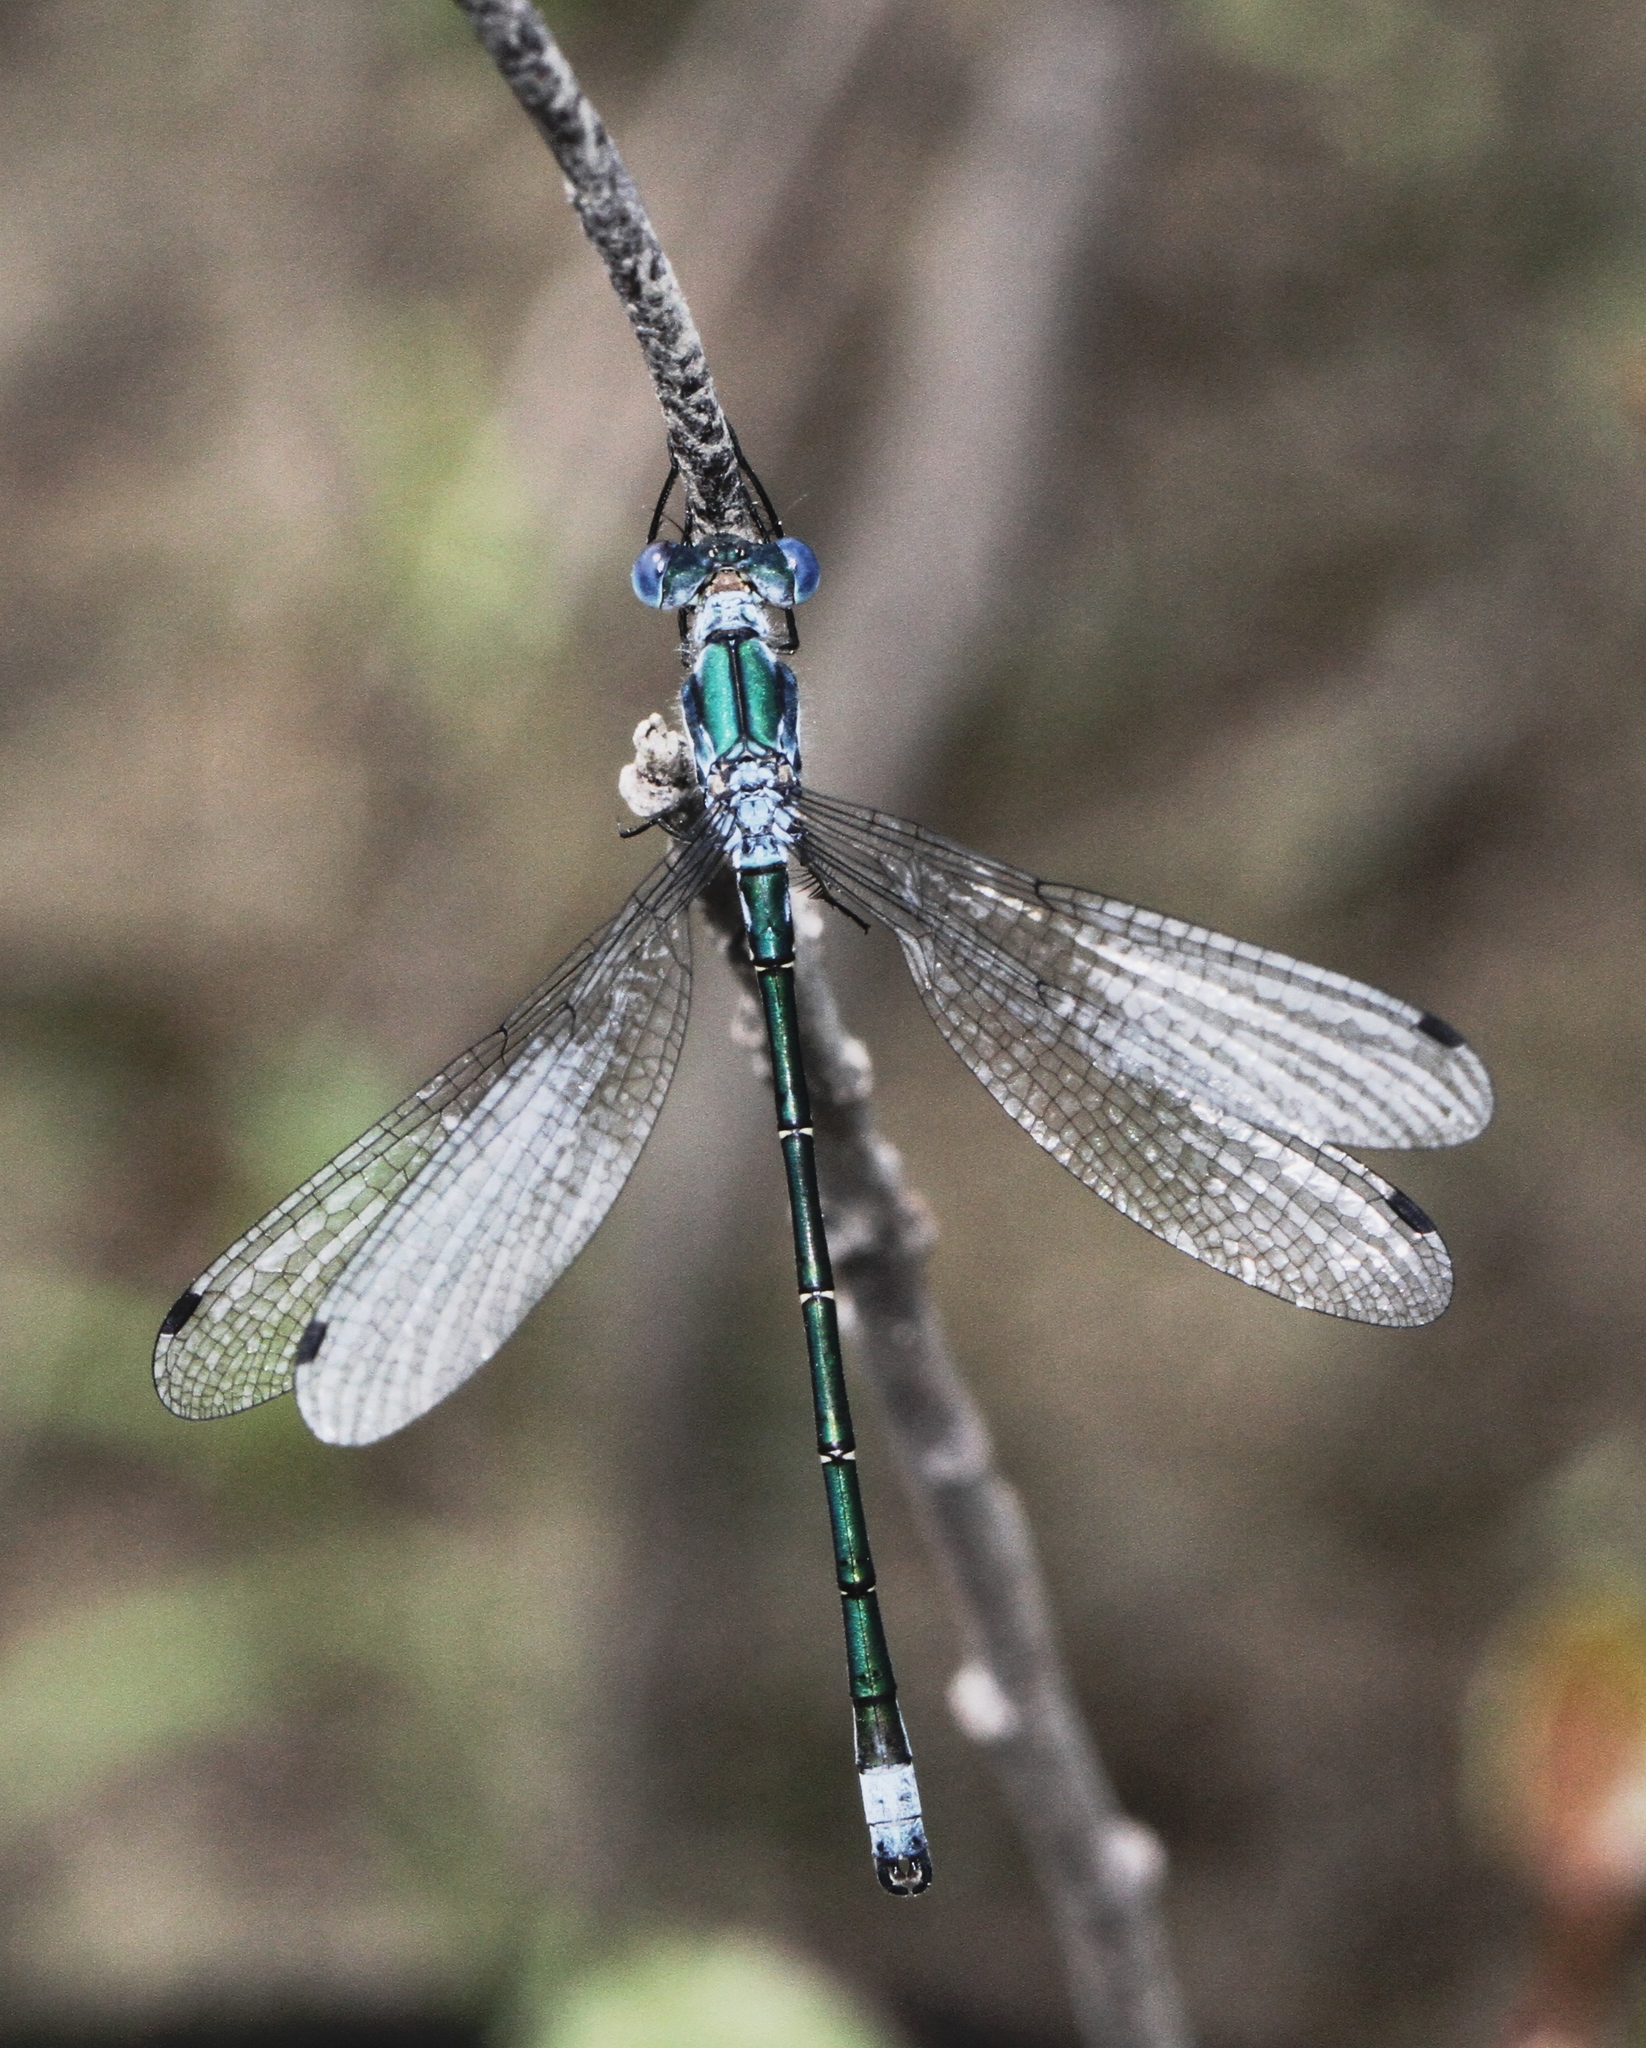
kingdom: Animalia
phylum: Arthropoda
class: Insecta
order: Odonata
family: Lestidae
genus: Lestes
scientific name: Lestes dryas
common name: Scarce emerald damselfly
